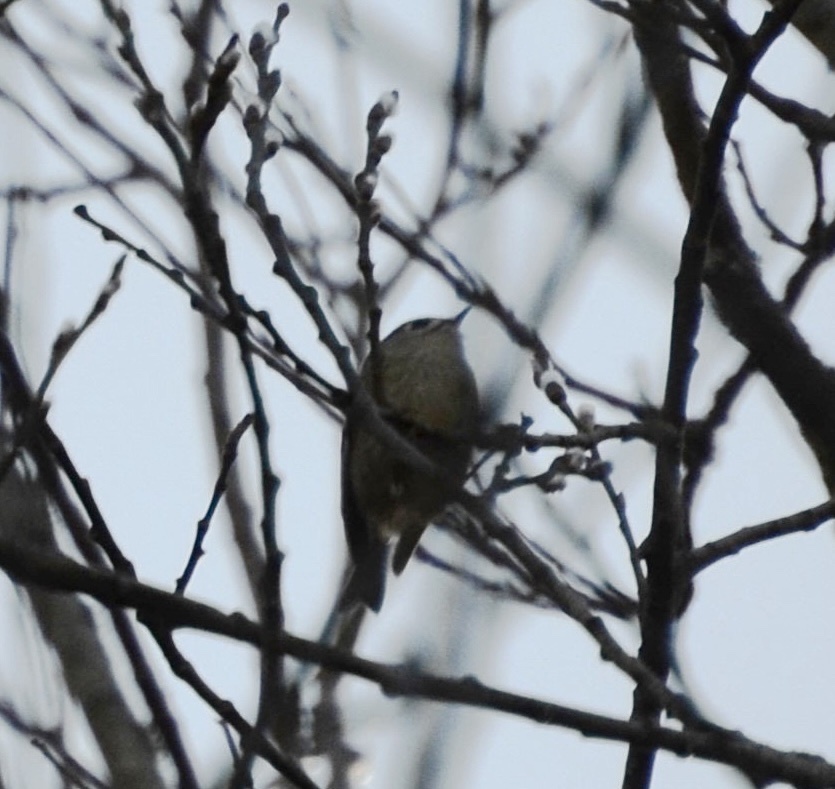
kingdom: Animalia
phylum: Chordata
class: Aves
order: Passeriformes
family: Regulidae
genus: Regulus
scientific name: Regulus regulus
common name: Goldcrest
